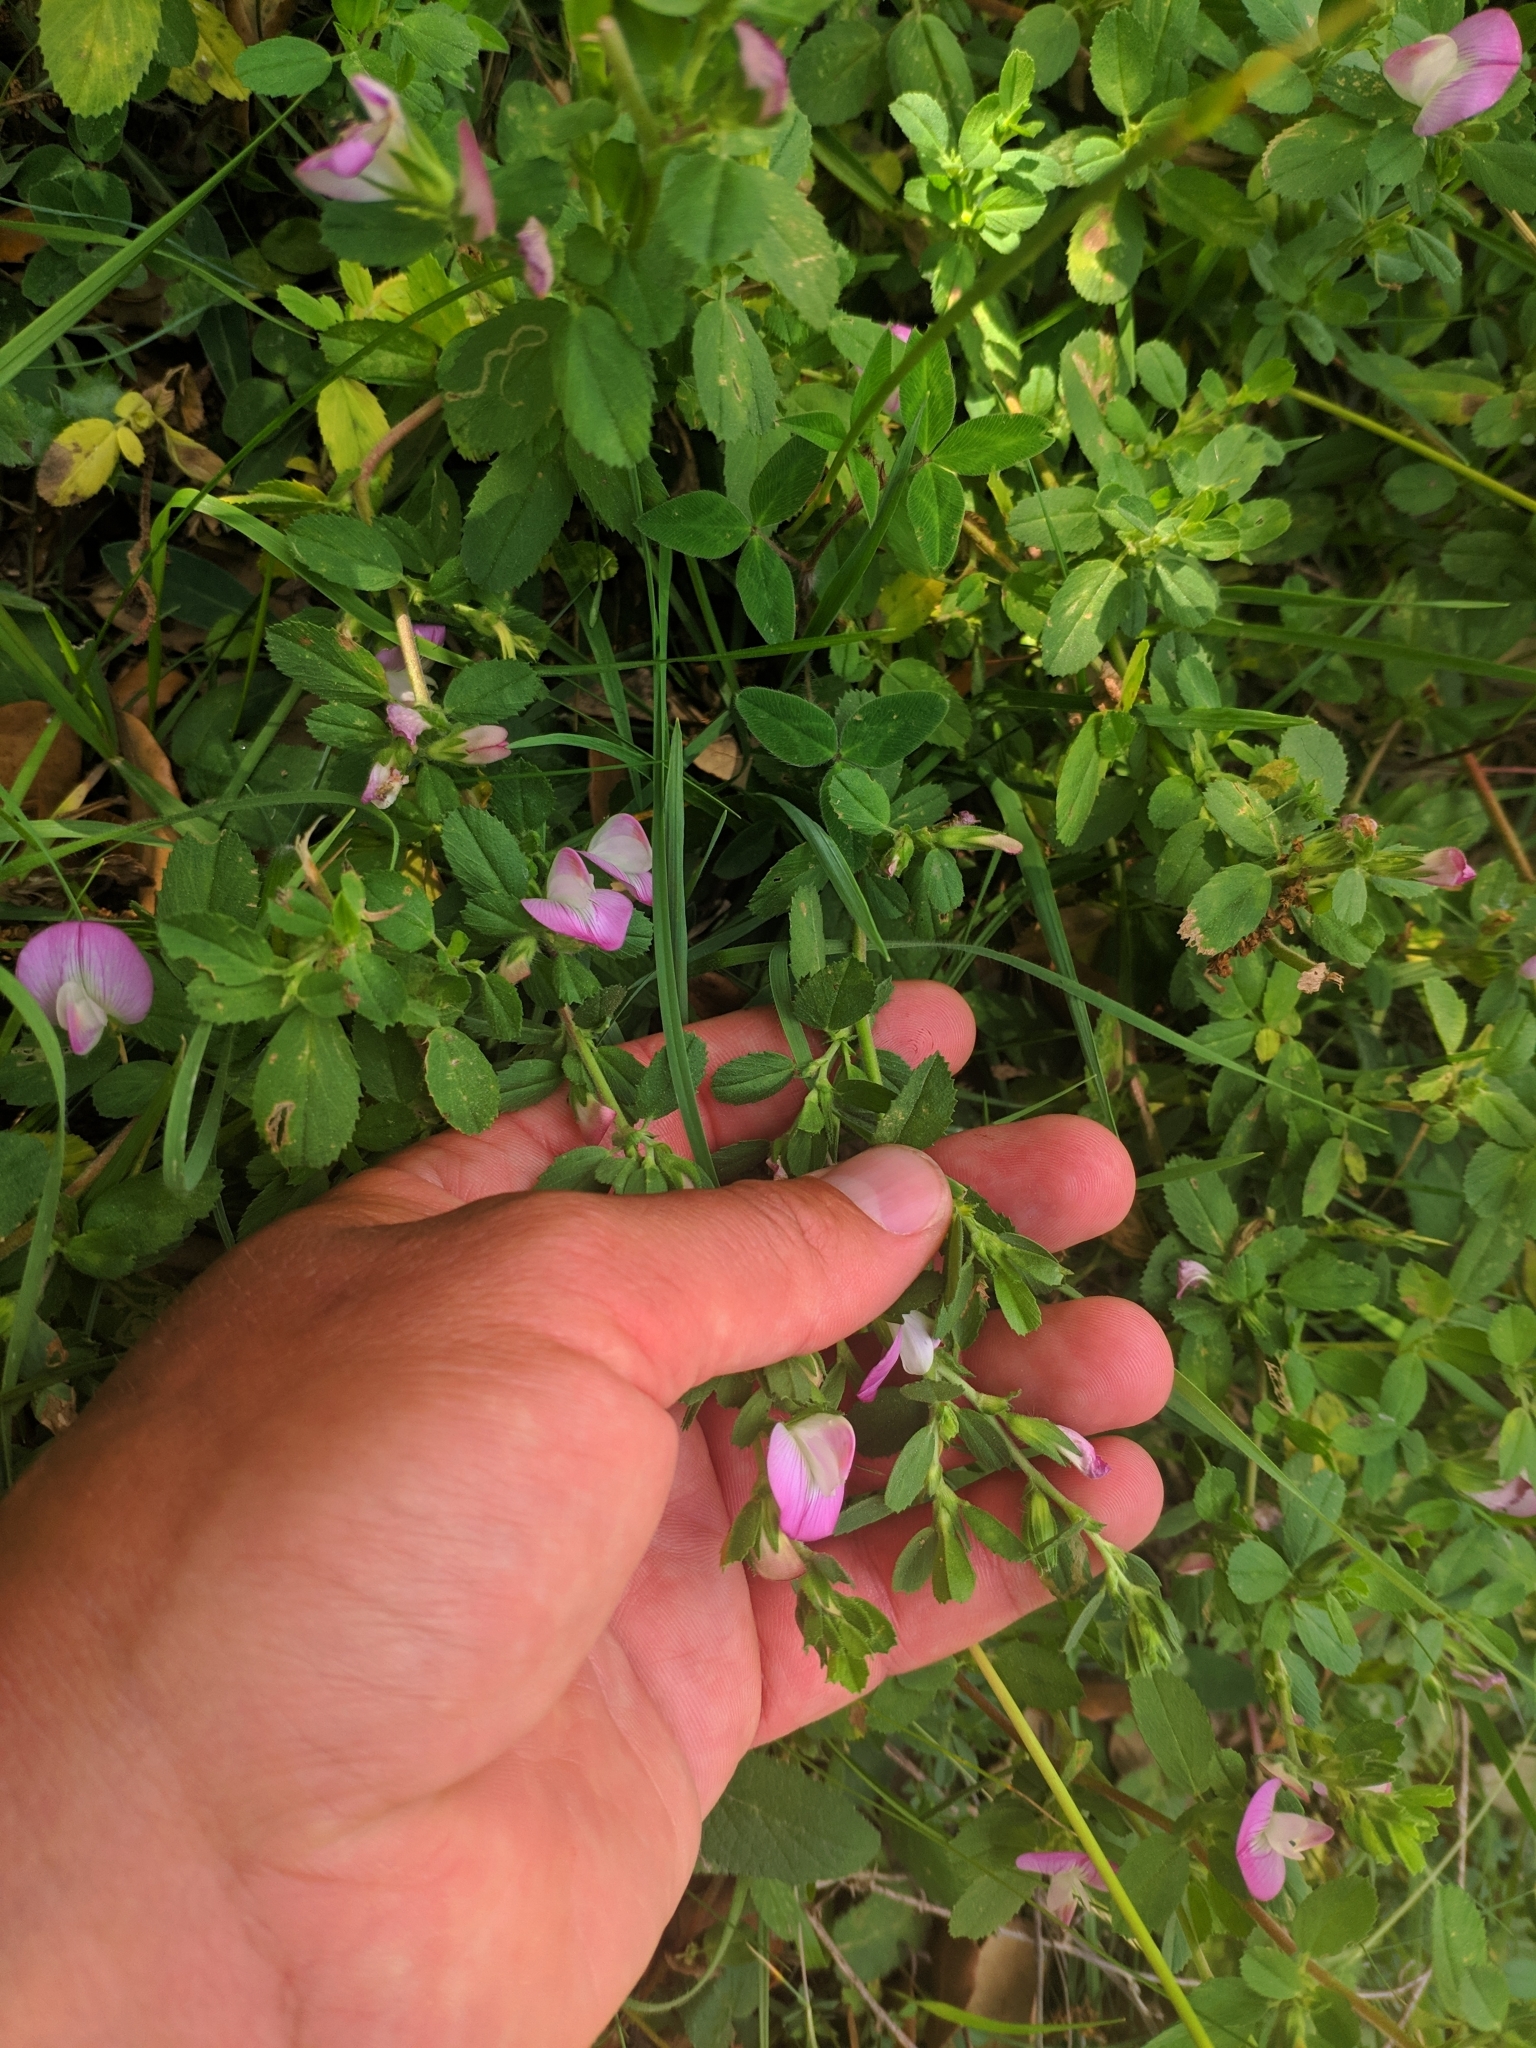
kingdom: Plantae
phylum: Tracheophyta
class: Magnoliopsida
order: Fabales
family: Fabaceae
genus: Ononis
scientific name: Ononis spinosa
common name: Spiny restharrow
